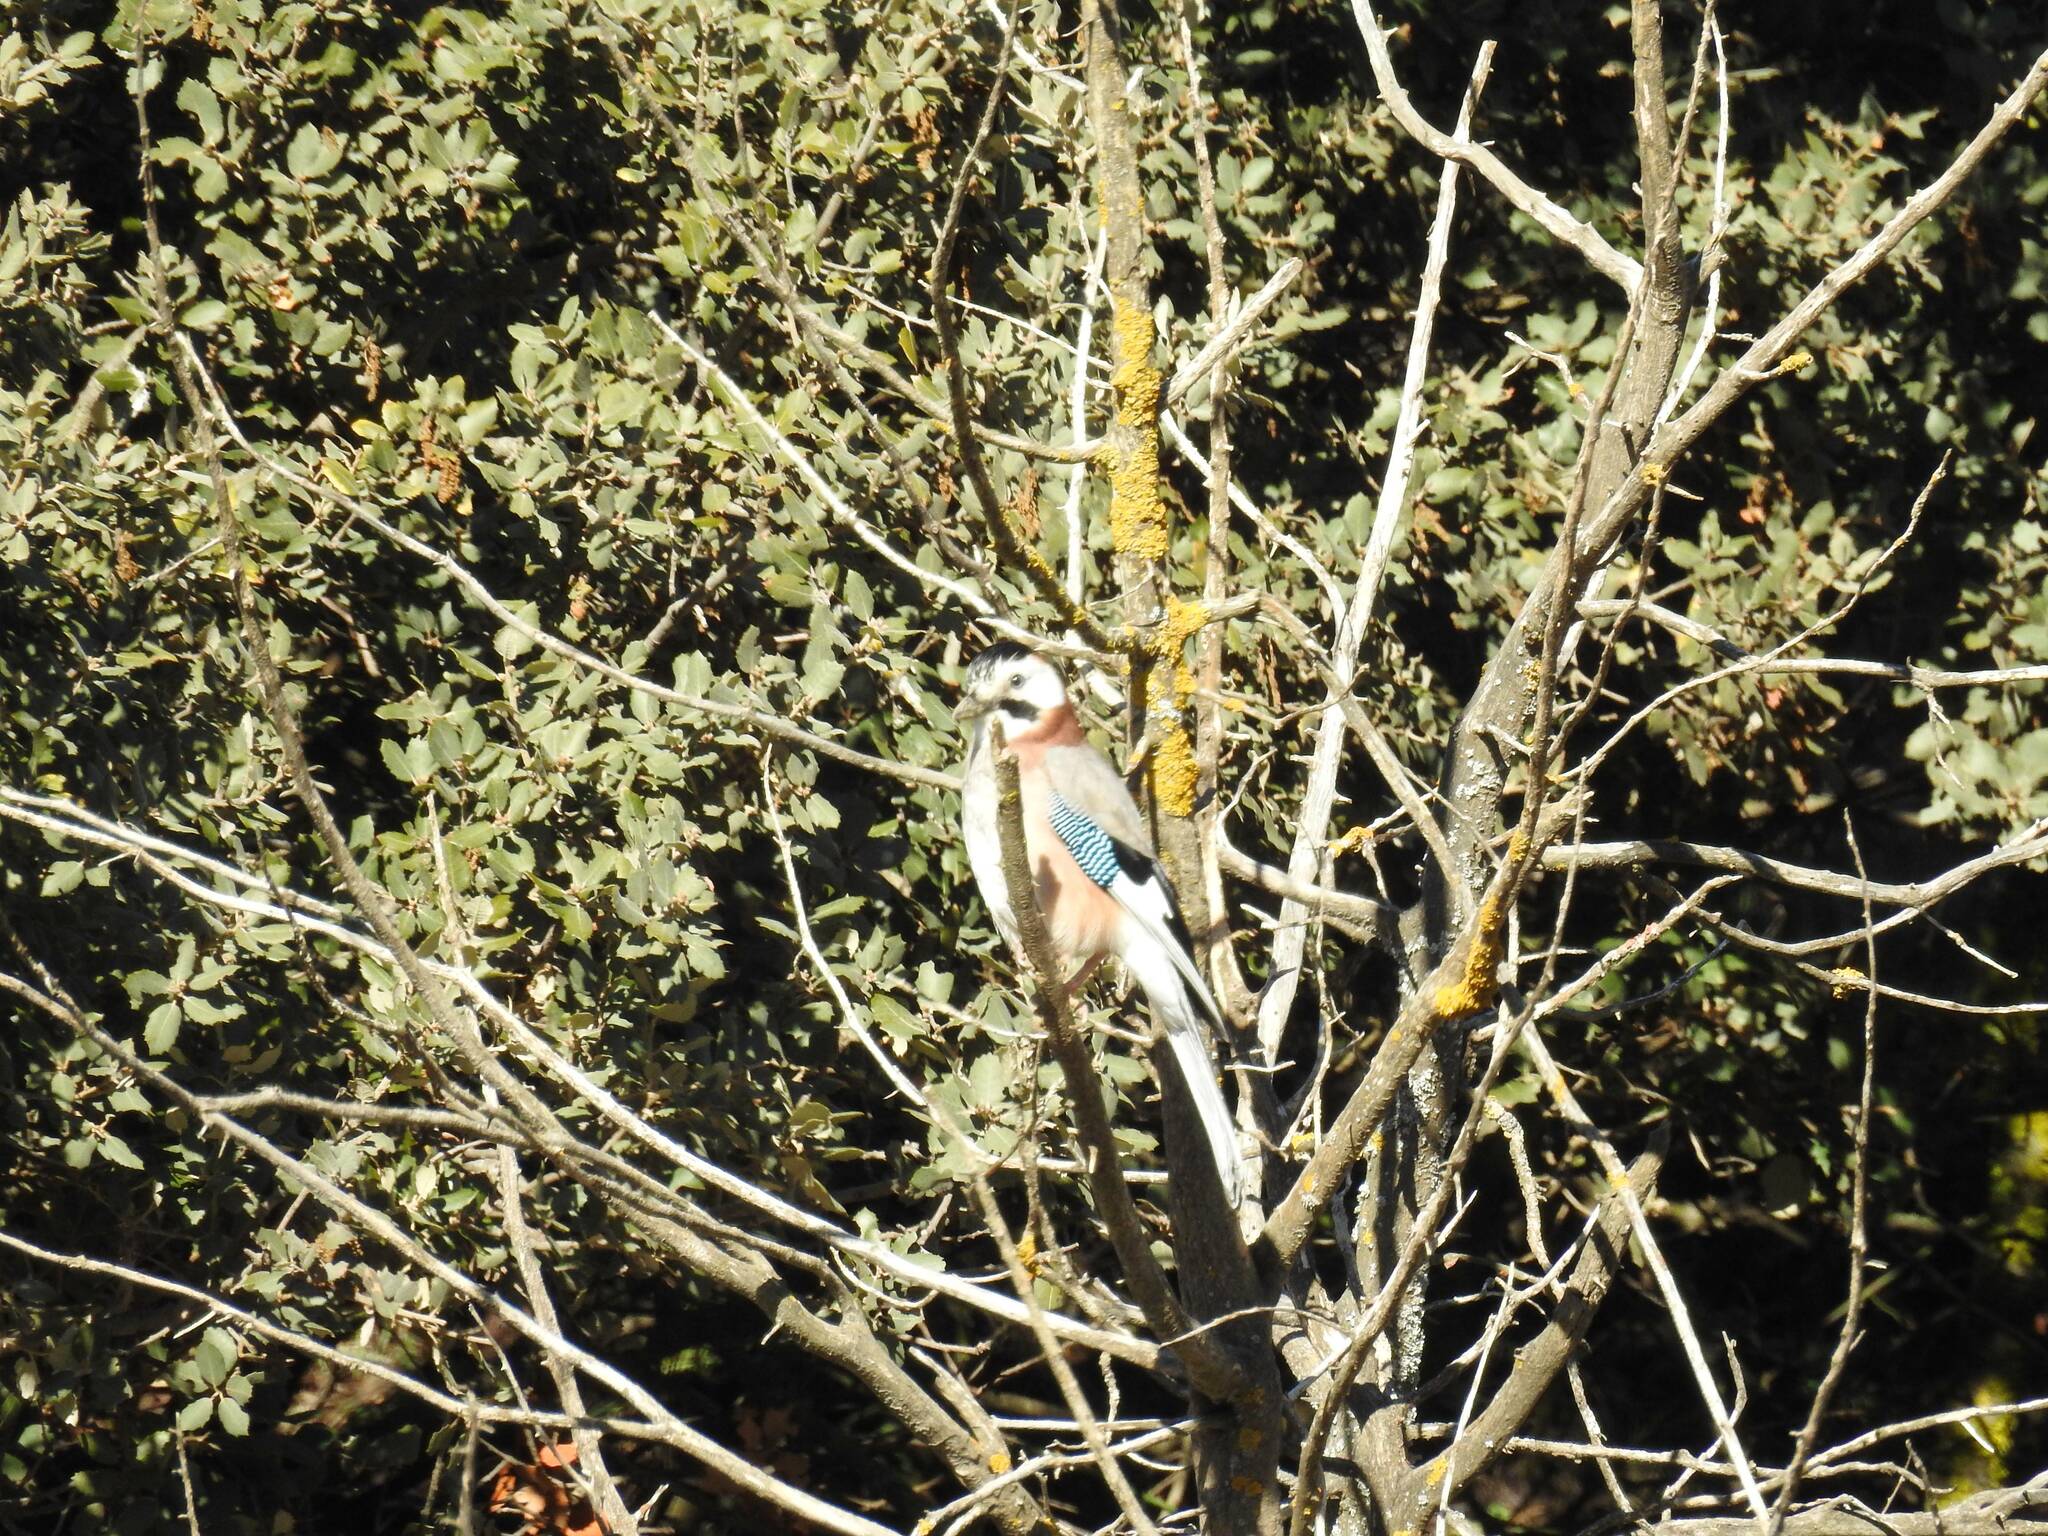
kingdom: Animalia
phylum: Chordata
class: Aves
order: Passeriformes
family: Corvidae
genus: Garrulus
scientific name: Garrulus glandarius
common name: Eurasian jay
